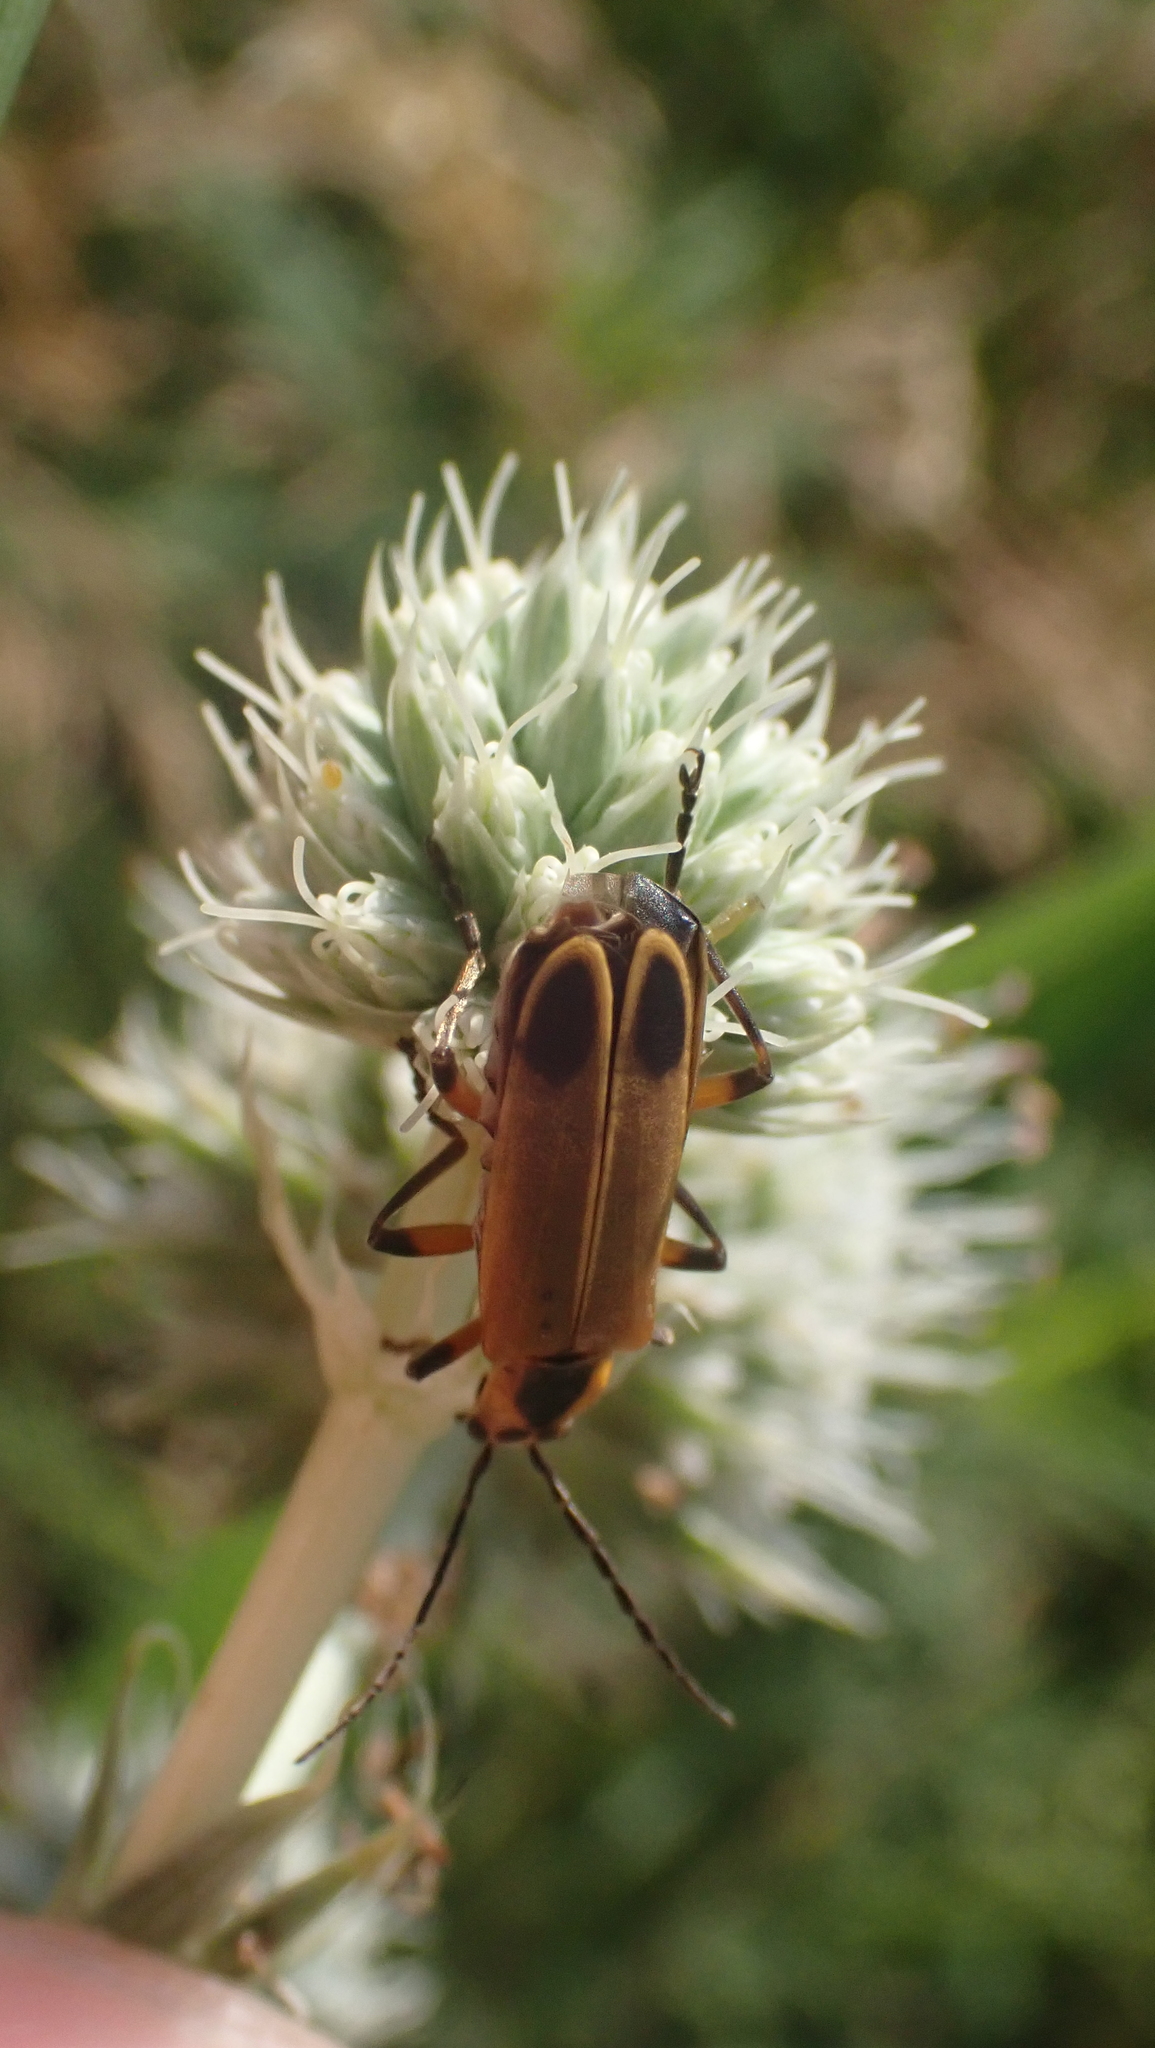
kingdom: Animalia
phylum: Arthropoda
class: Insecta
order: Coleoptera
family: Cantharidae
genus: Chauliognathus
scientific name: Chauliognathus marginatus
